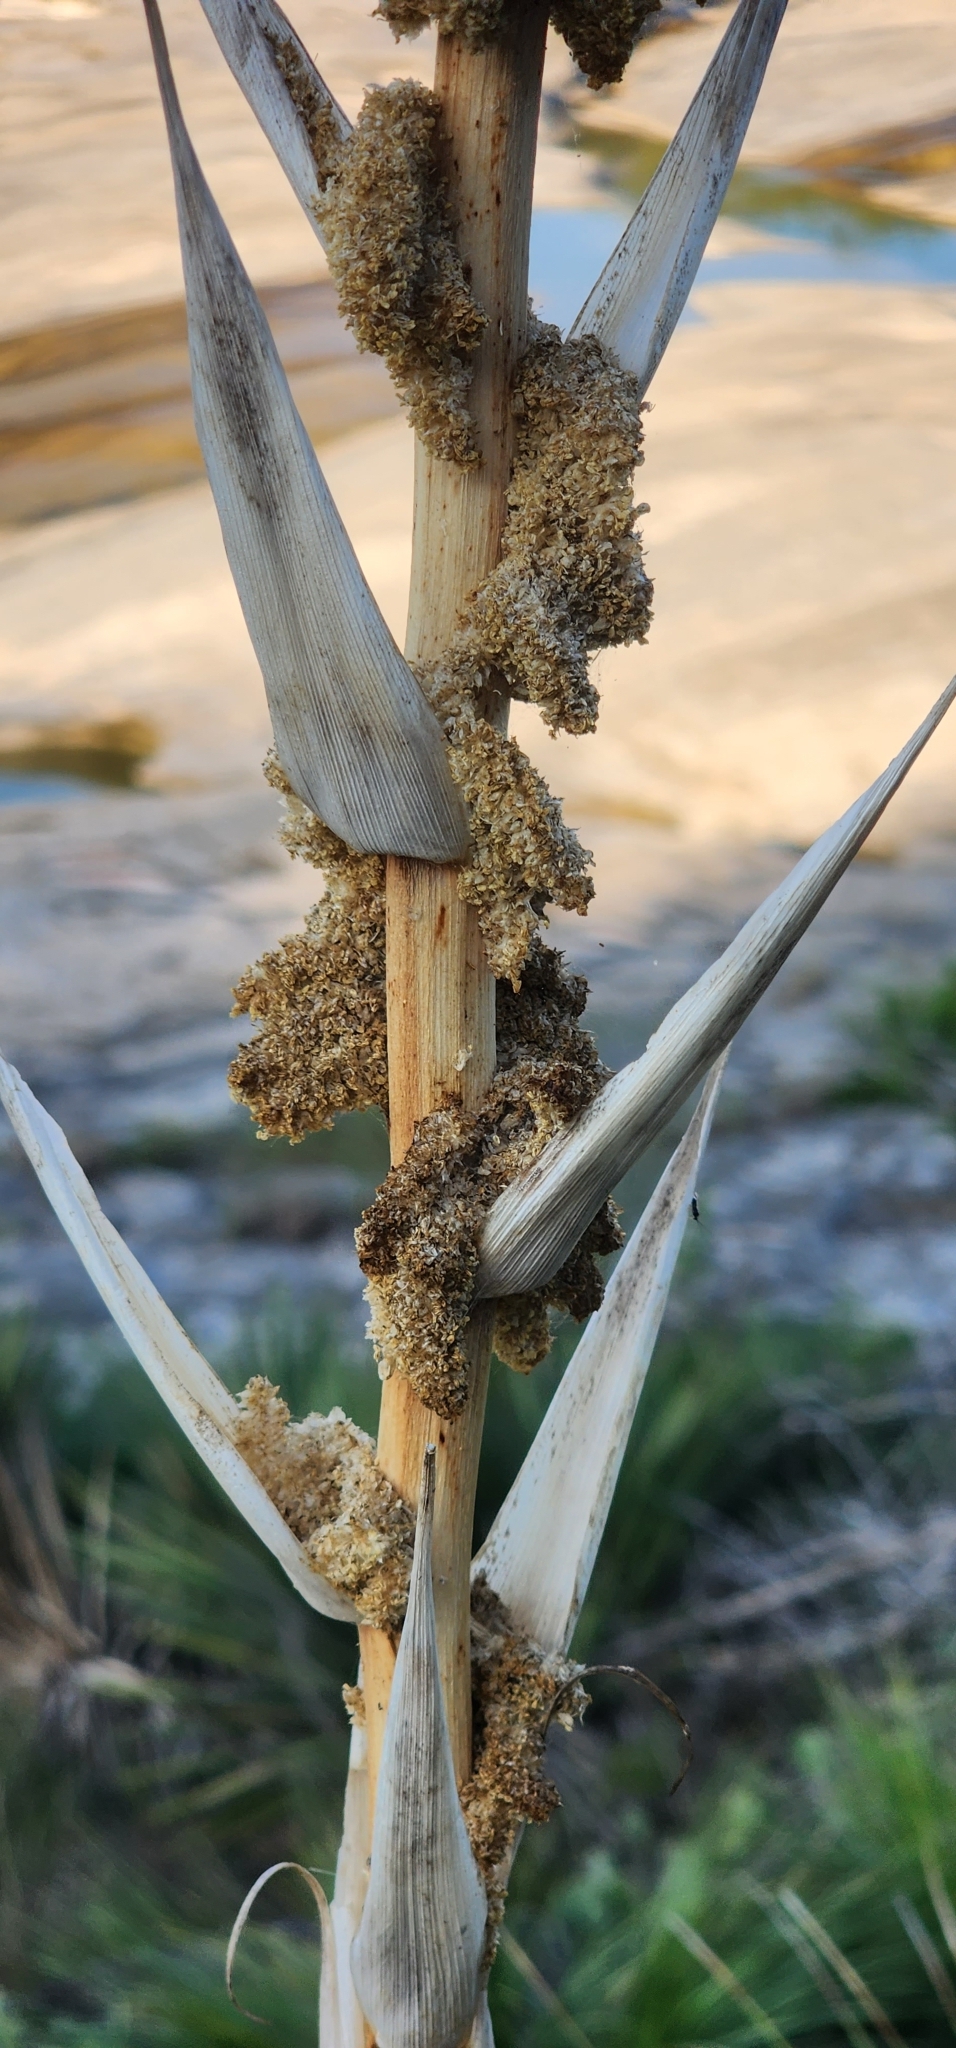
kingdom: Plantae
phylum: Tracheophyta
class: Liliopsida
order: Asparagales
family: Asparagaceae
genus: Dasylirion
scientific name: Dasylirion texanum
